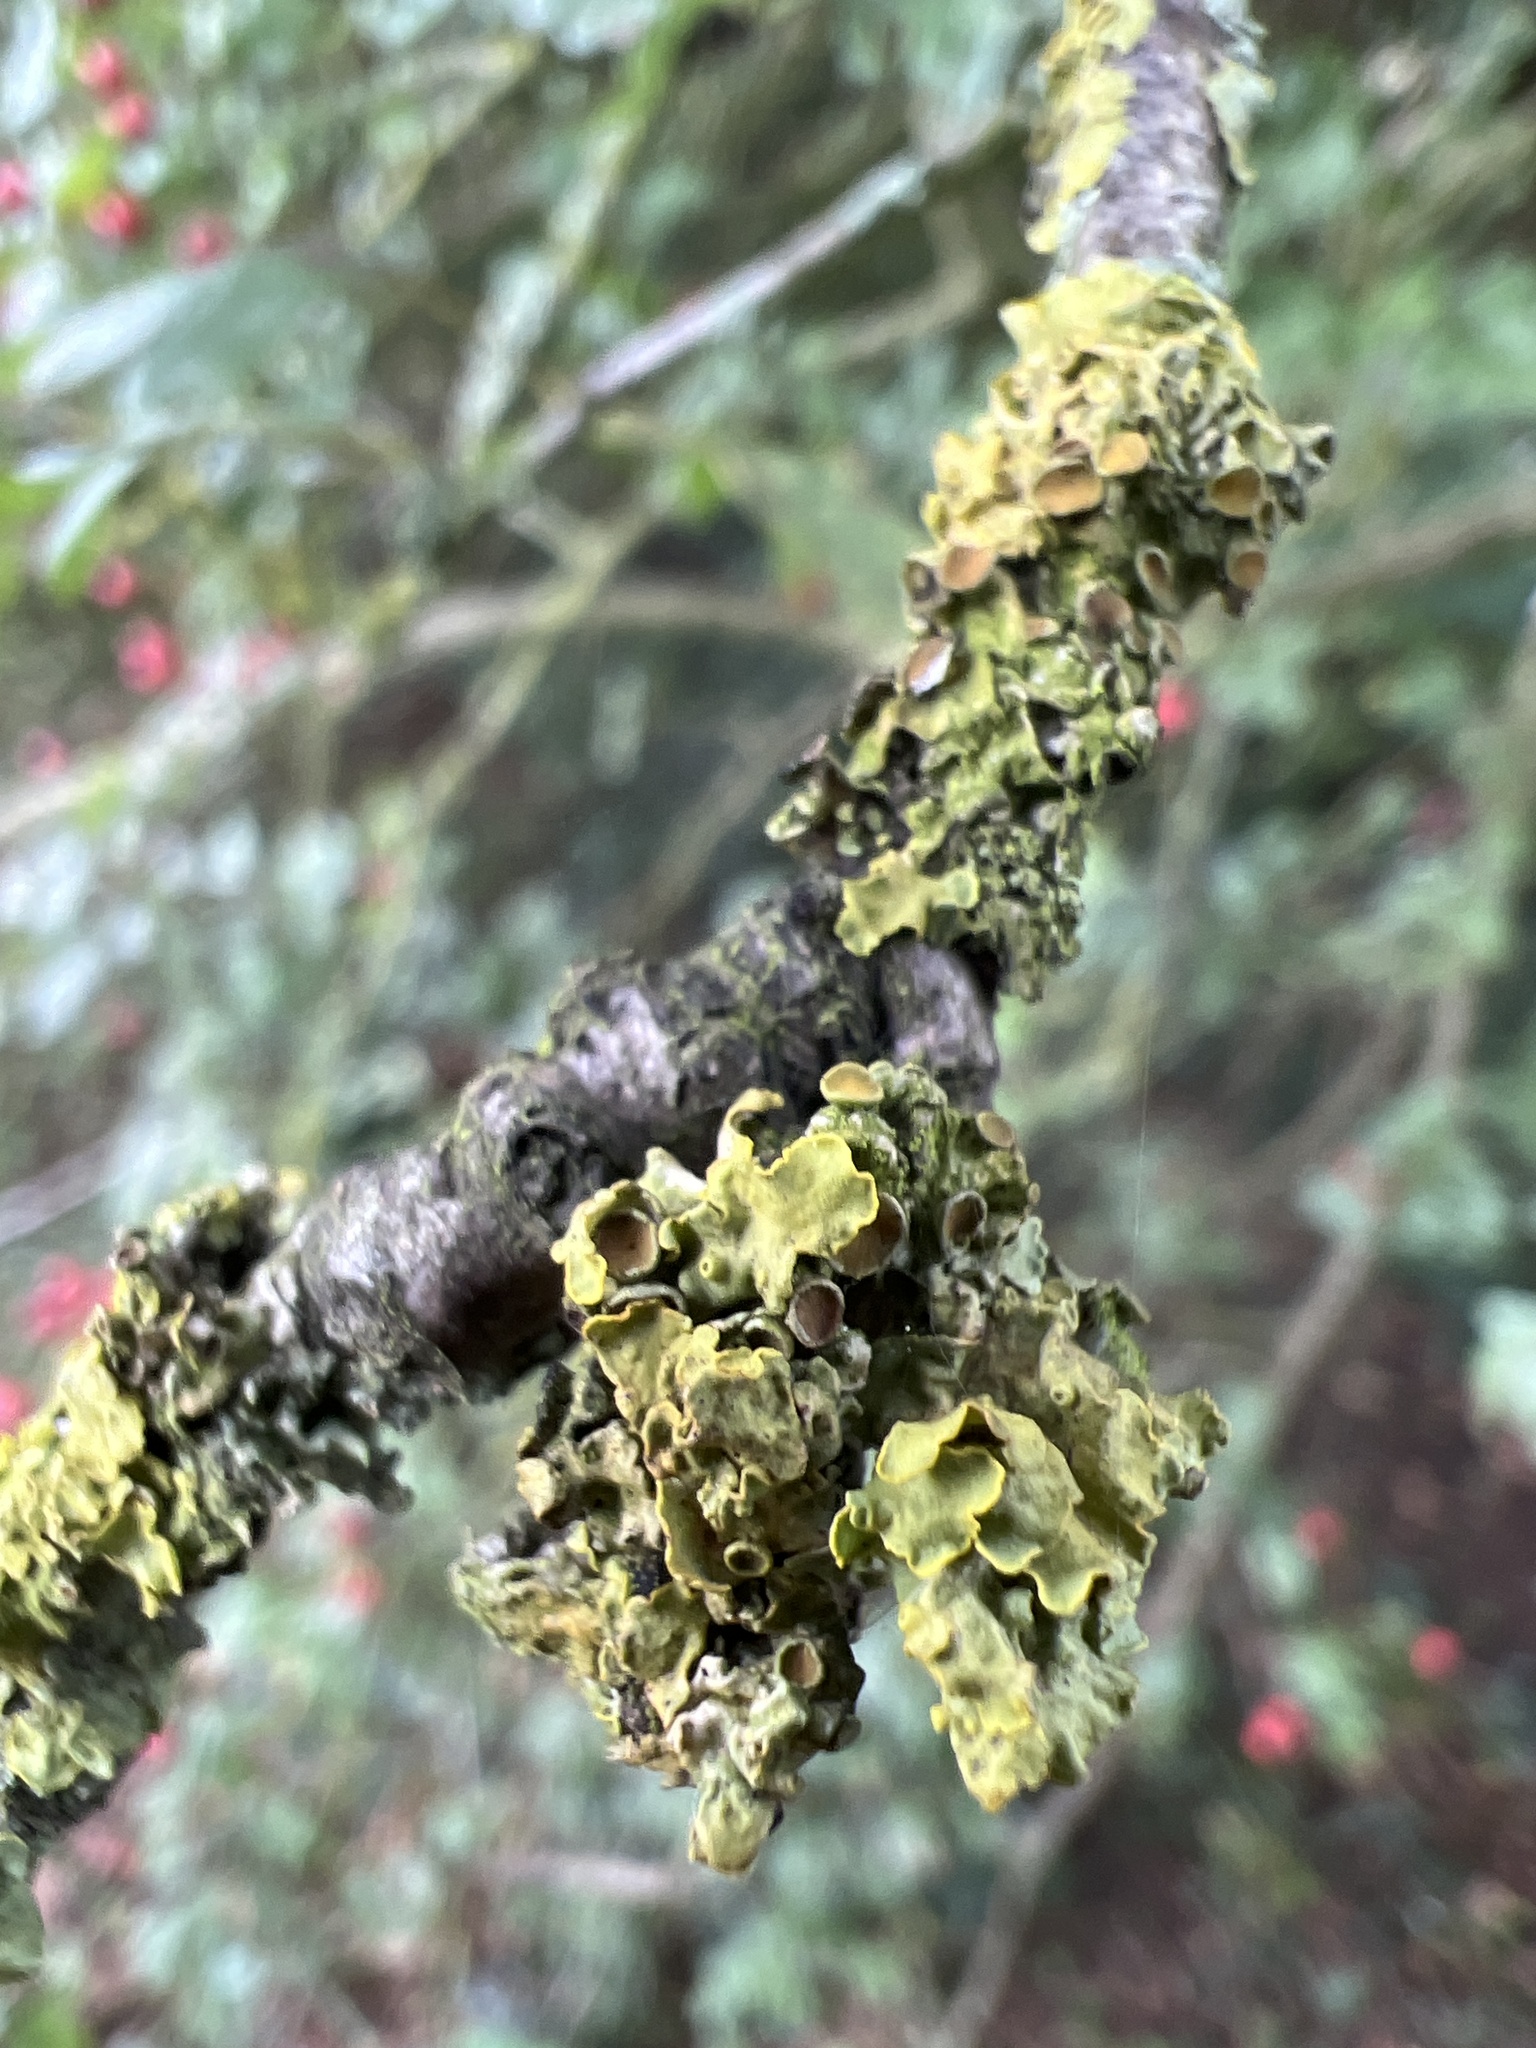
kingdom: Fungi
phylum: Ascomycota
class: Lecanoromycetes
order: Teloschistales
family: Teloschistaceae
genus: Xanthoria
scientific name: Xanthoria parietina
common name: Common orange lichen
